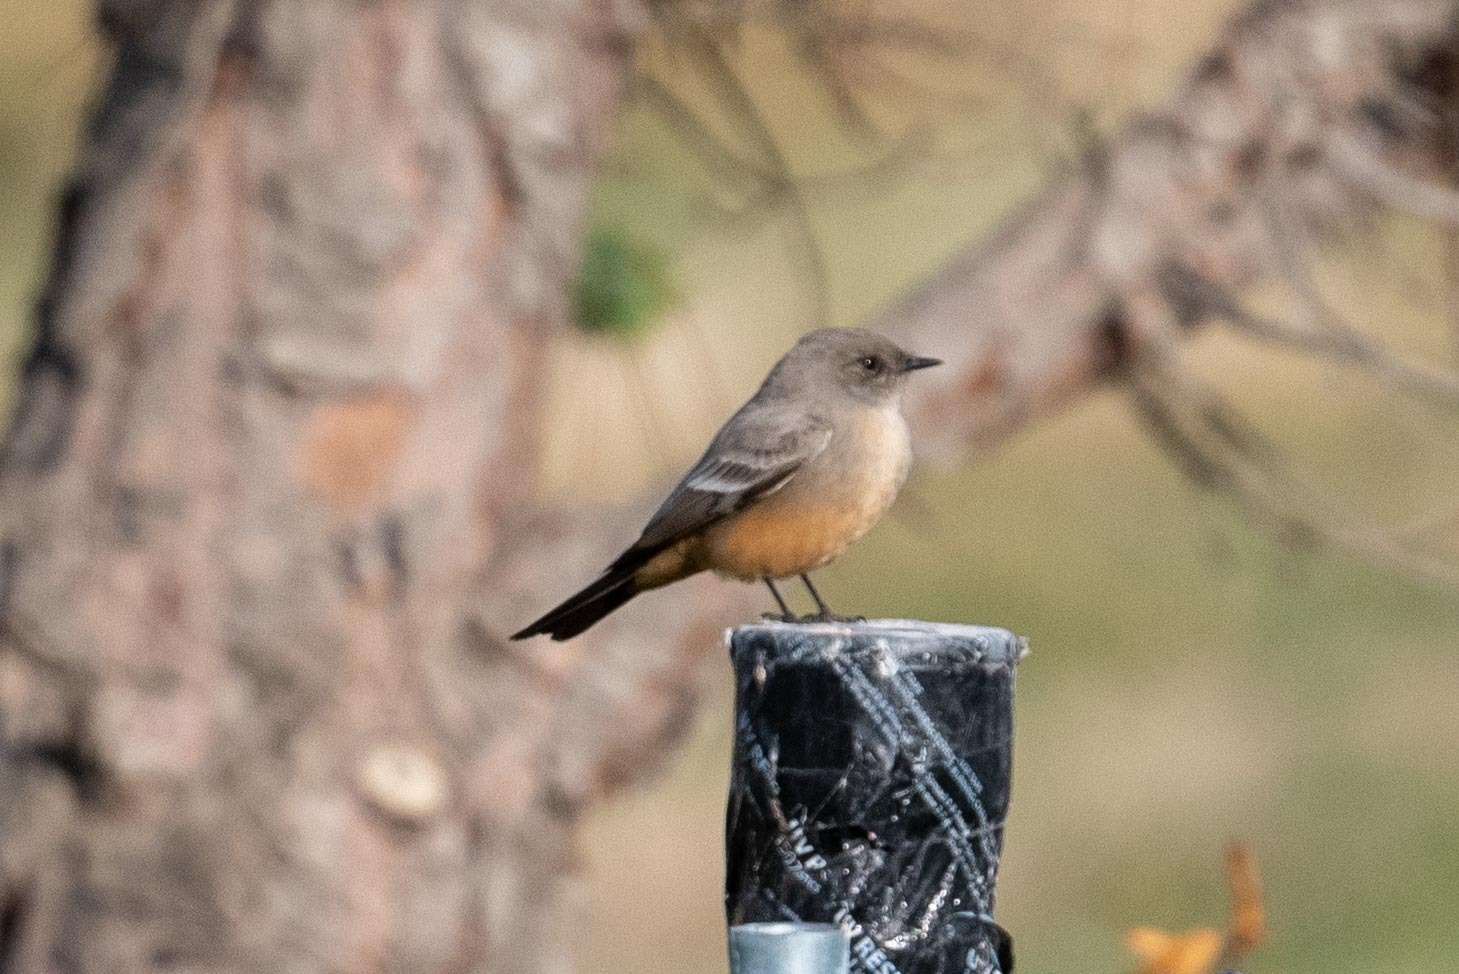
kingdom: Animalia
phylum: Chordata
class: Aves
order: Passeriformes
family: Tyrannidae
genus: Sayornis
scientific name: Sayornis saya
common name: Say's phoebe
